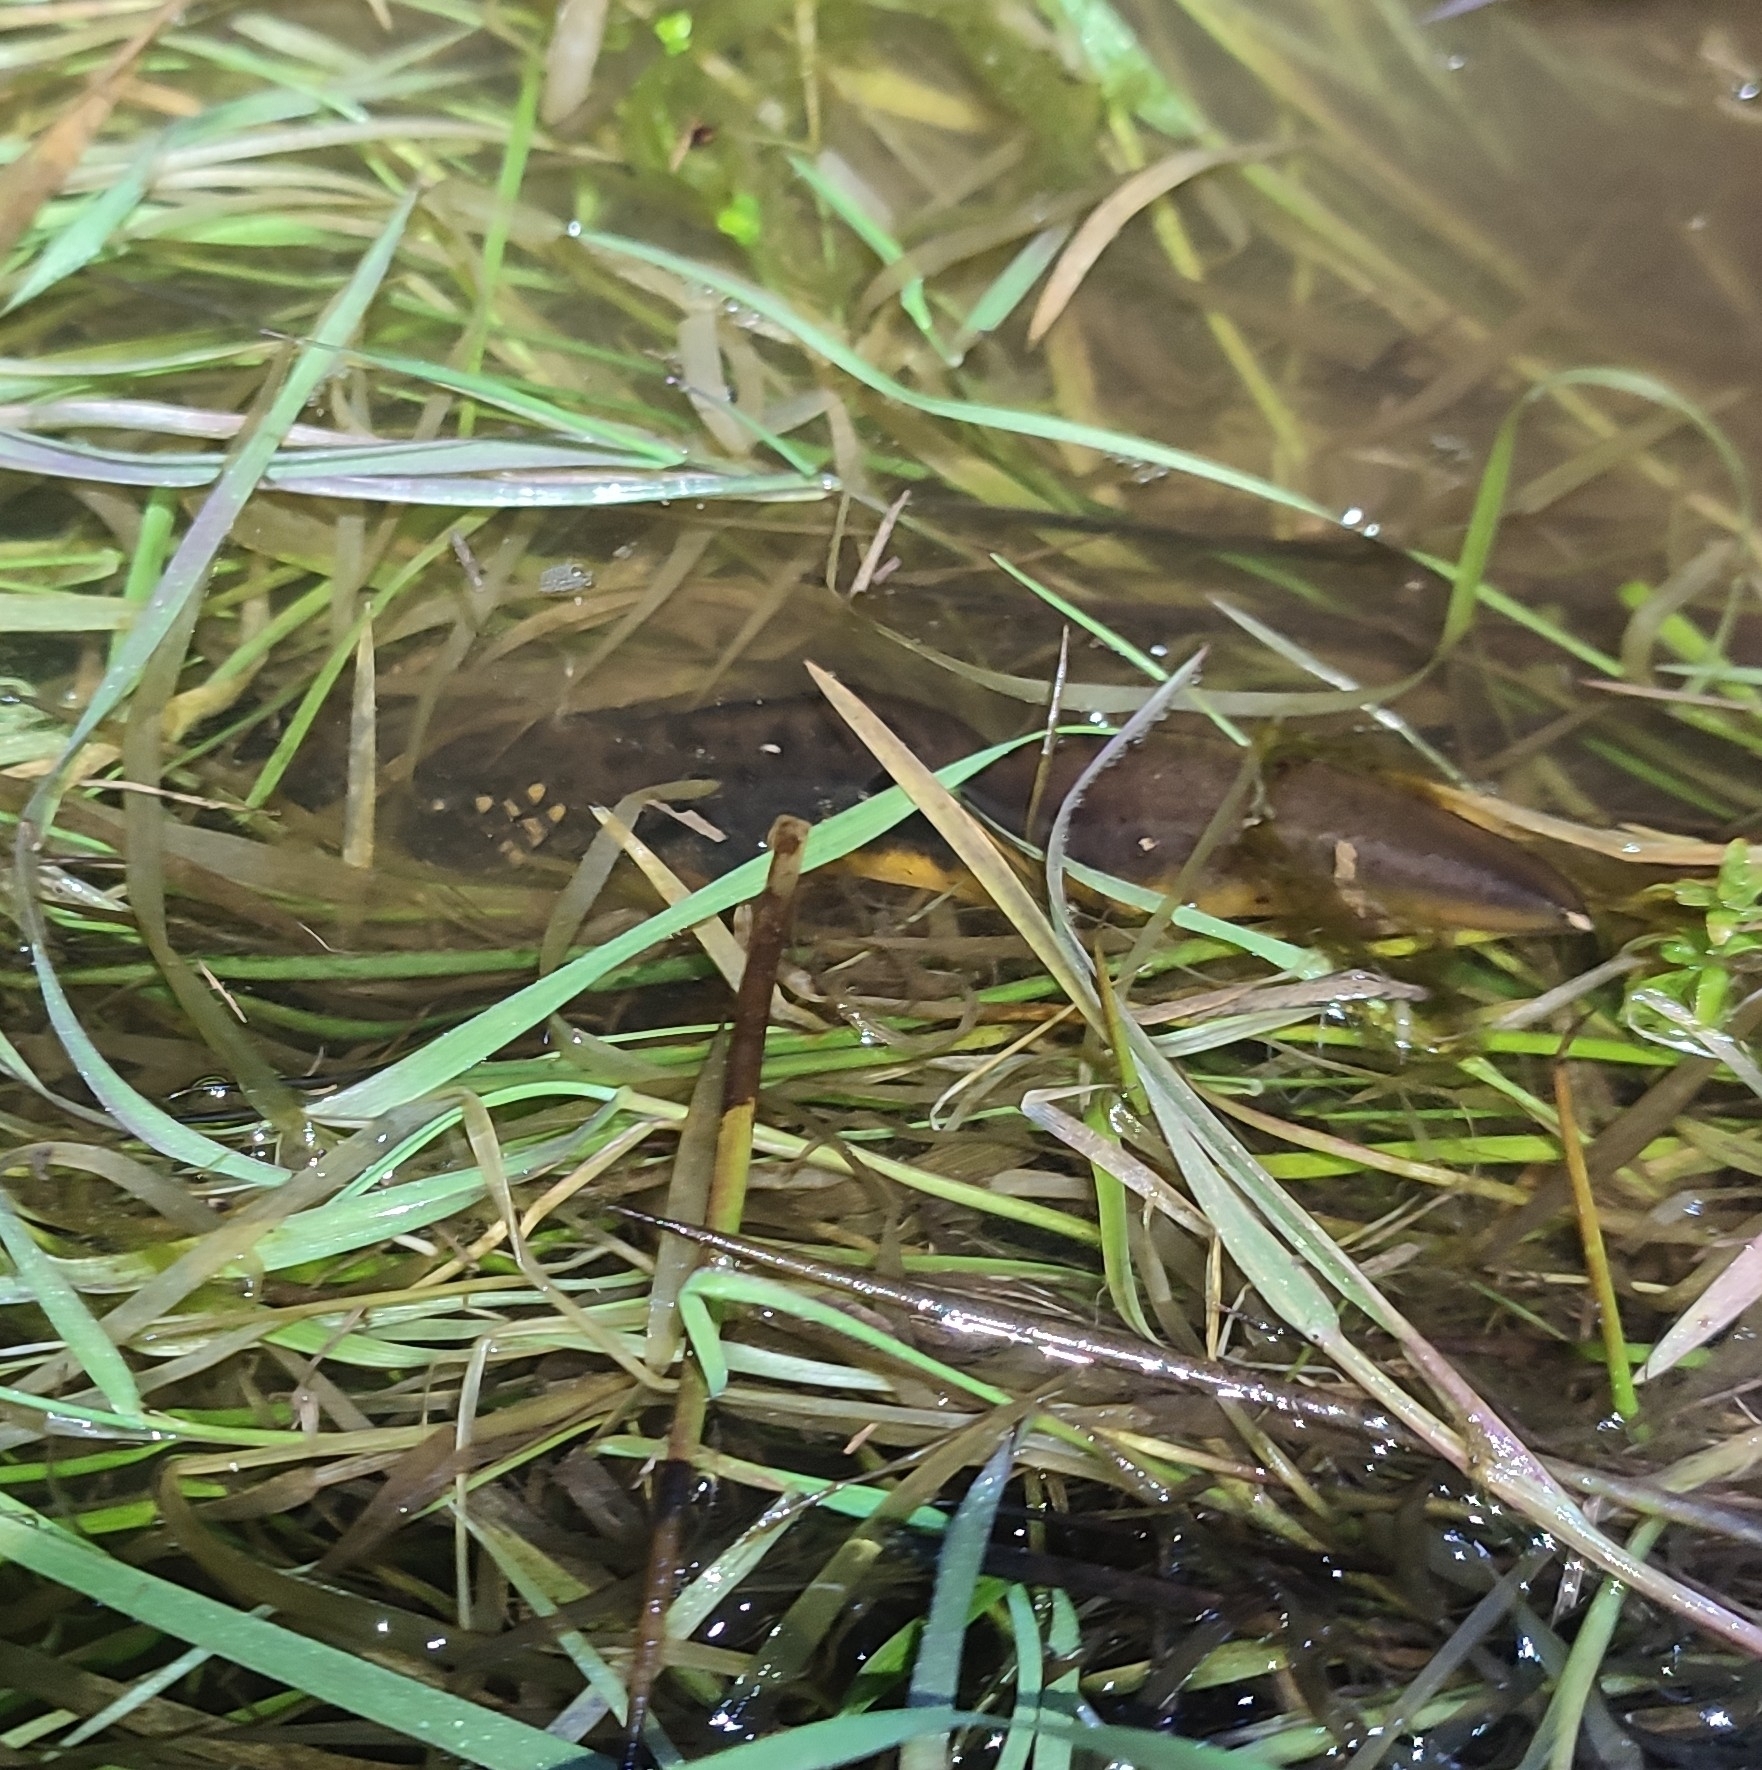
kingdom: Animalia
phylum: Chordata
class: Amphibia
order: Caudata
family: Salamandridae
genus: Triturus
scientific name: Triturus cristatus
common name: Crested newt
